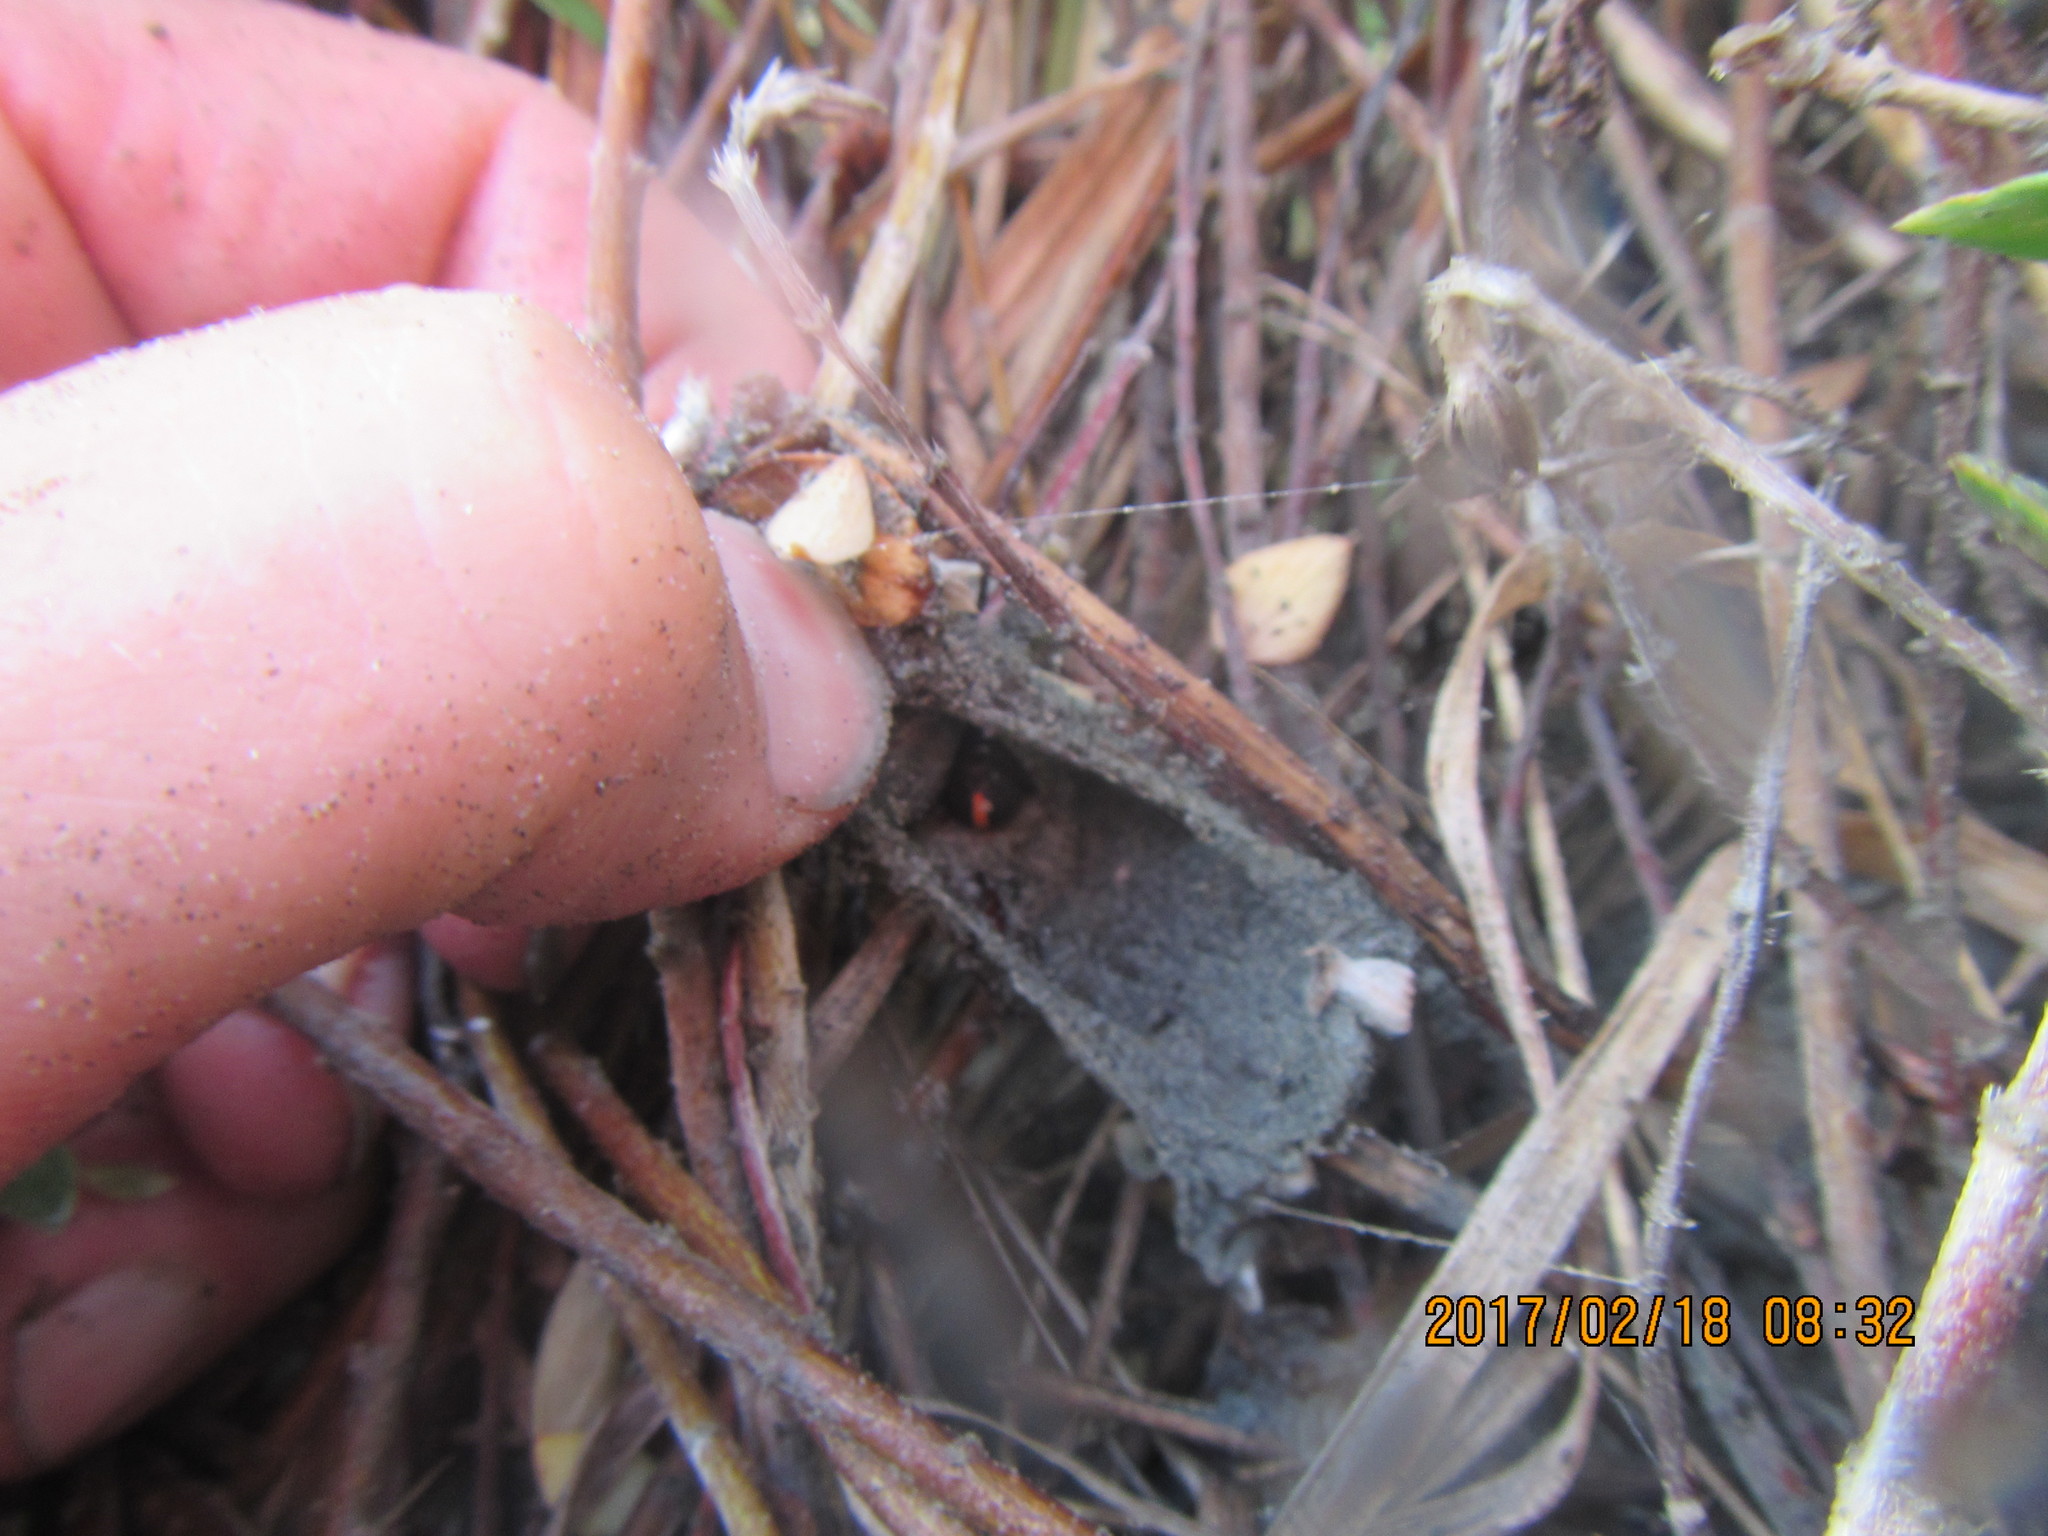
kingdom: Animalia
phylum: Arthropoda
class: Arachnida
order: Araneae
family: Theridiidae
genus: Latrodectus
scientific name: Latrodectus katipo
